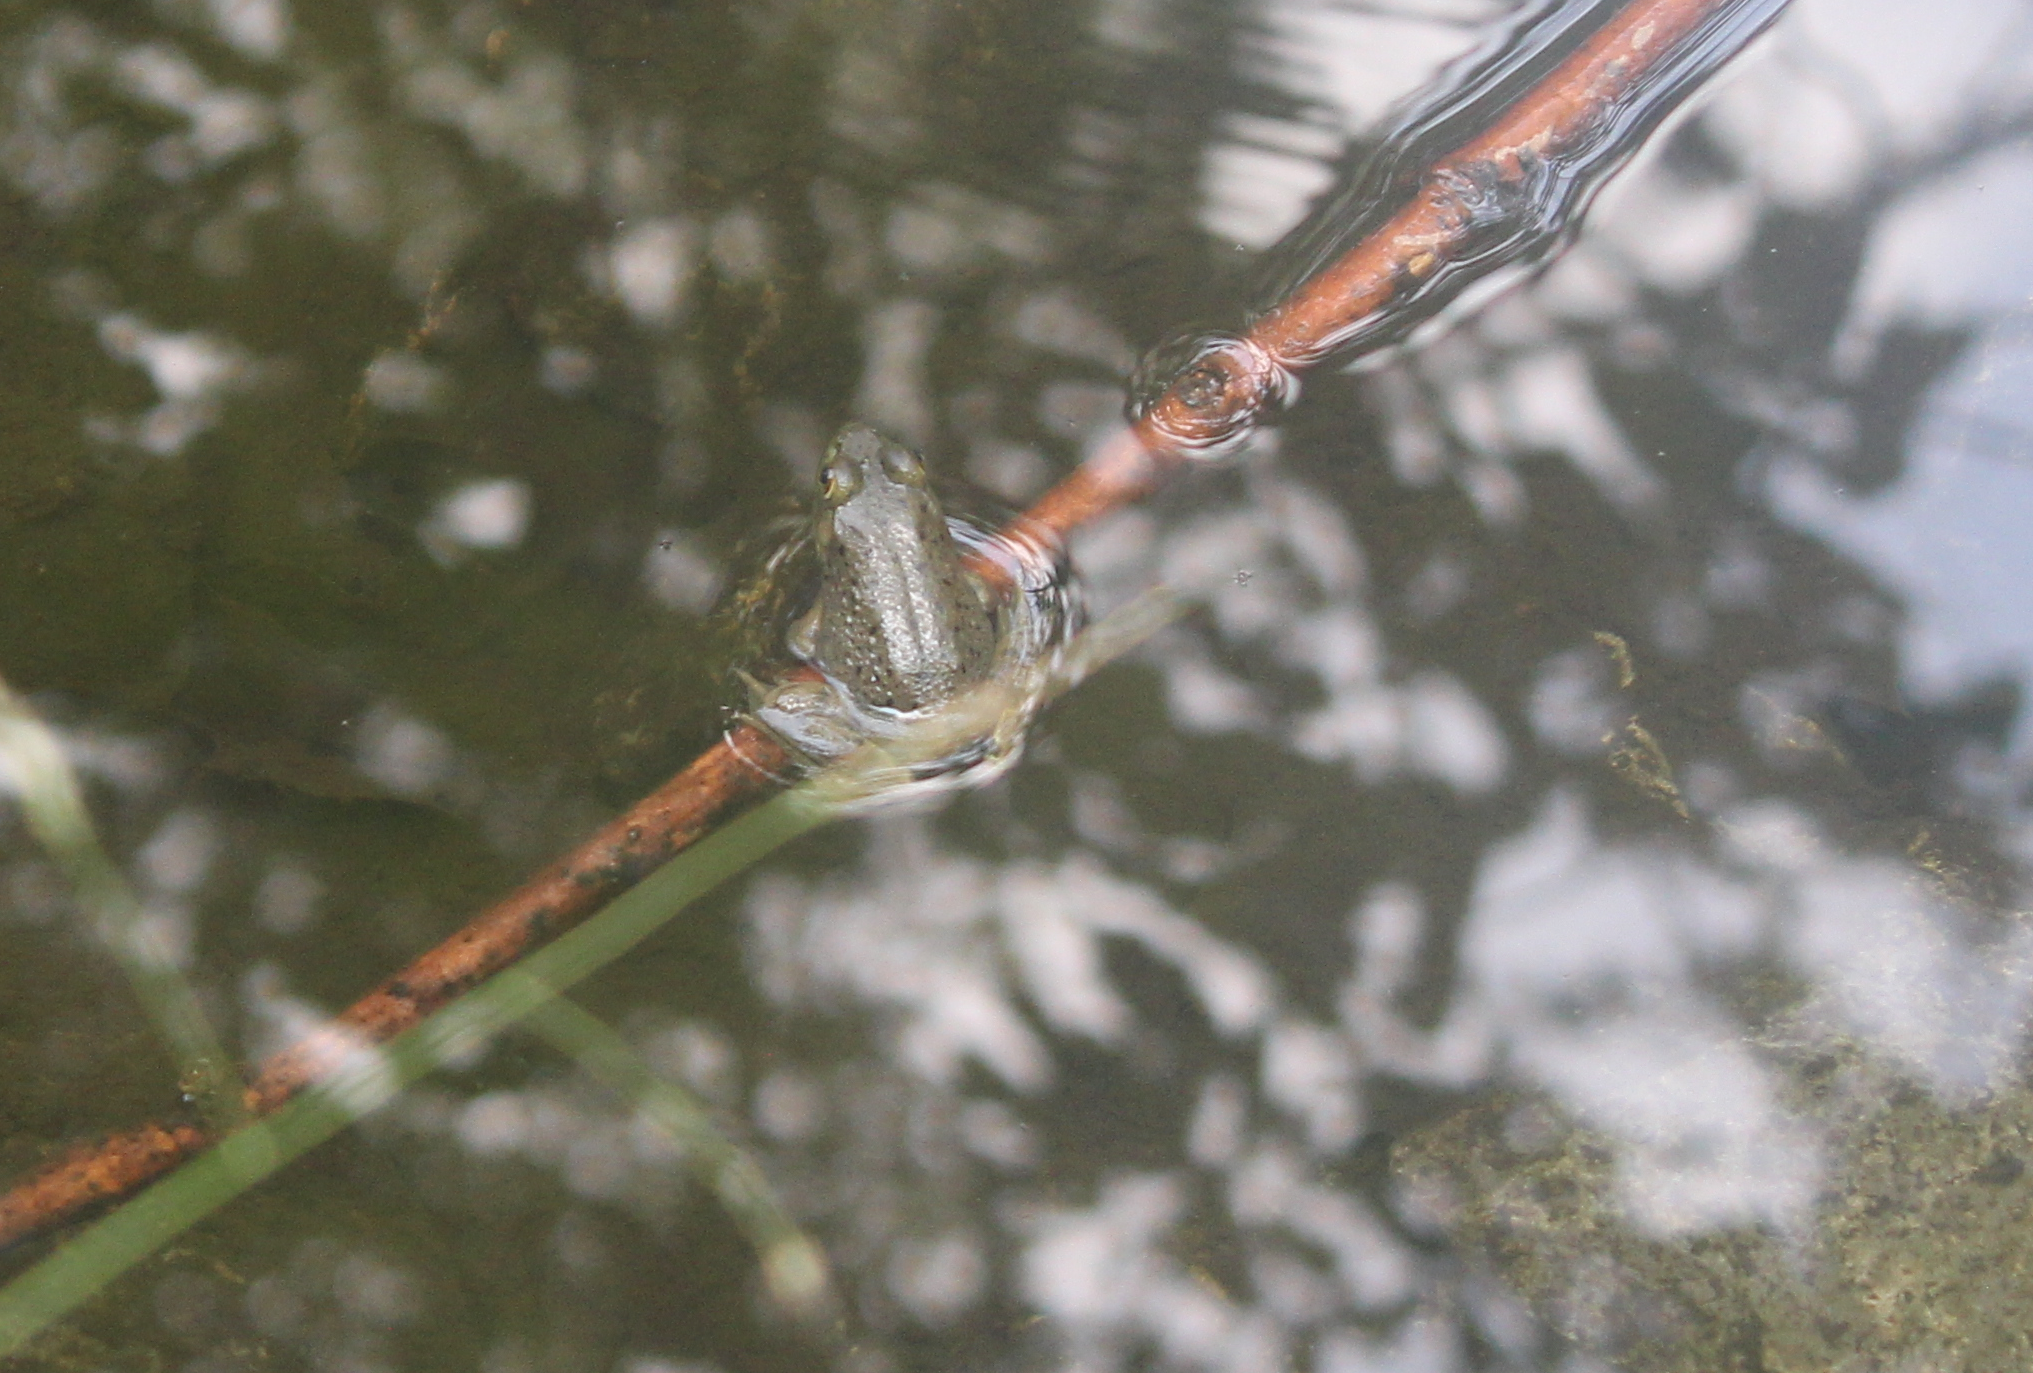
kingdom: Animalia
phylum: Chordata
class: Amphibia
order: Anura
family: Ranidae
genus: Lithobates
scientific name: Lithobates catesbeianus
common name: American bullfrog
